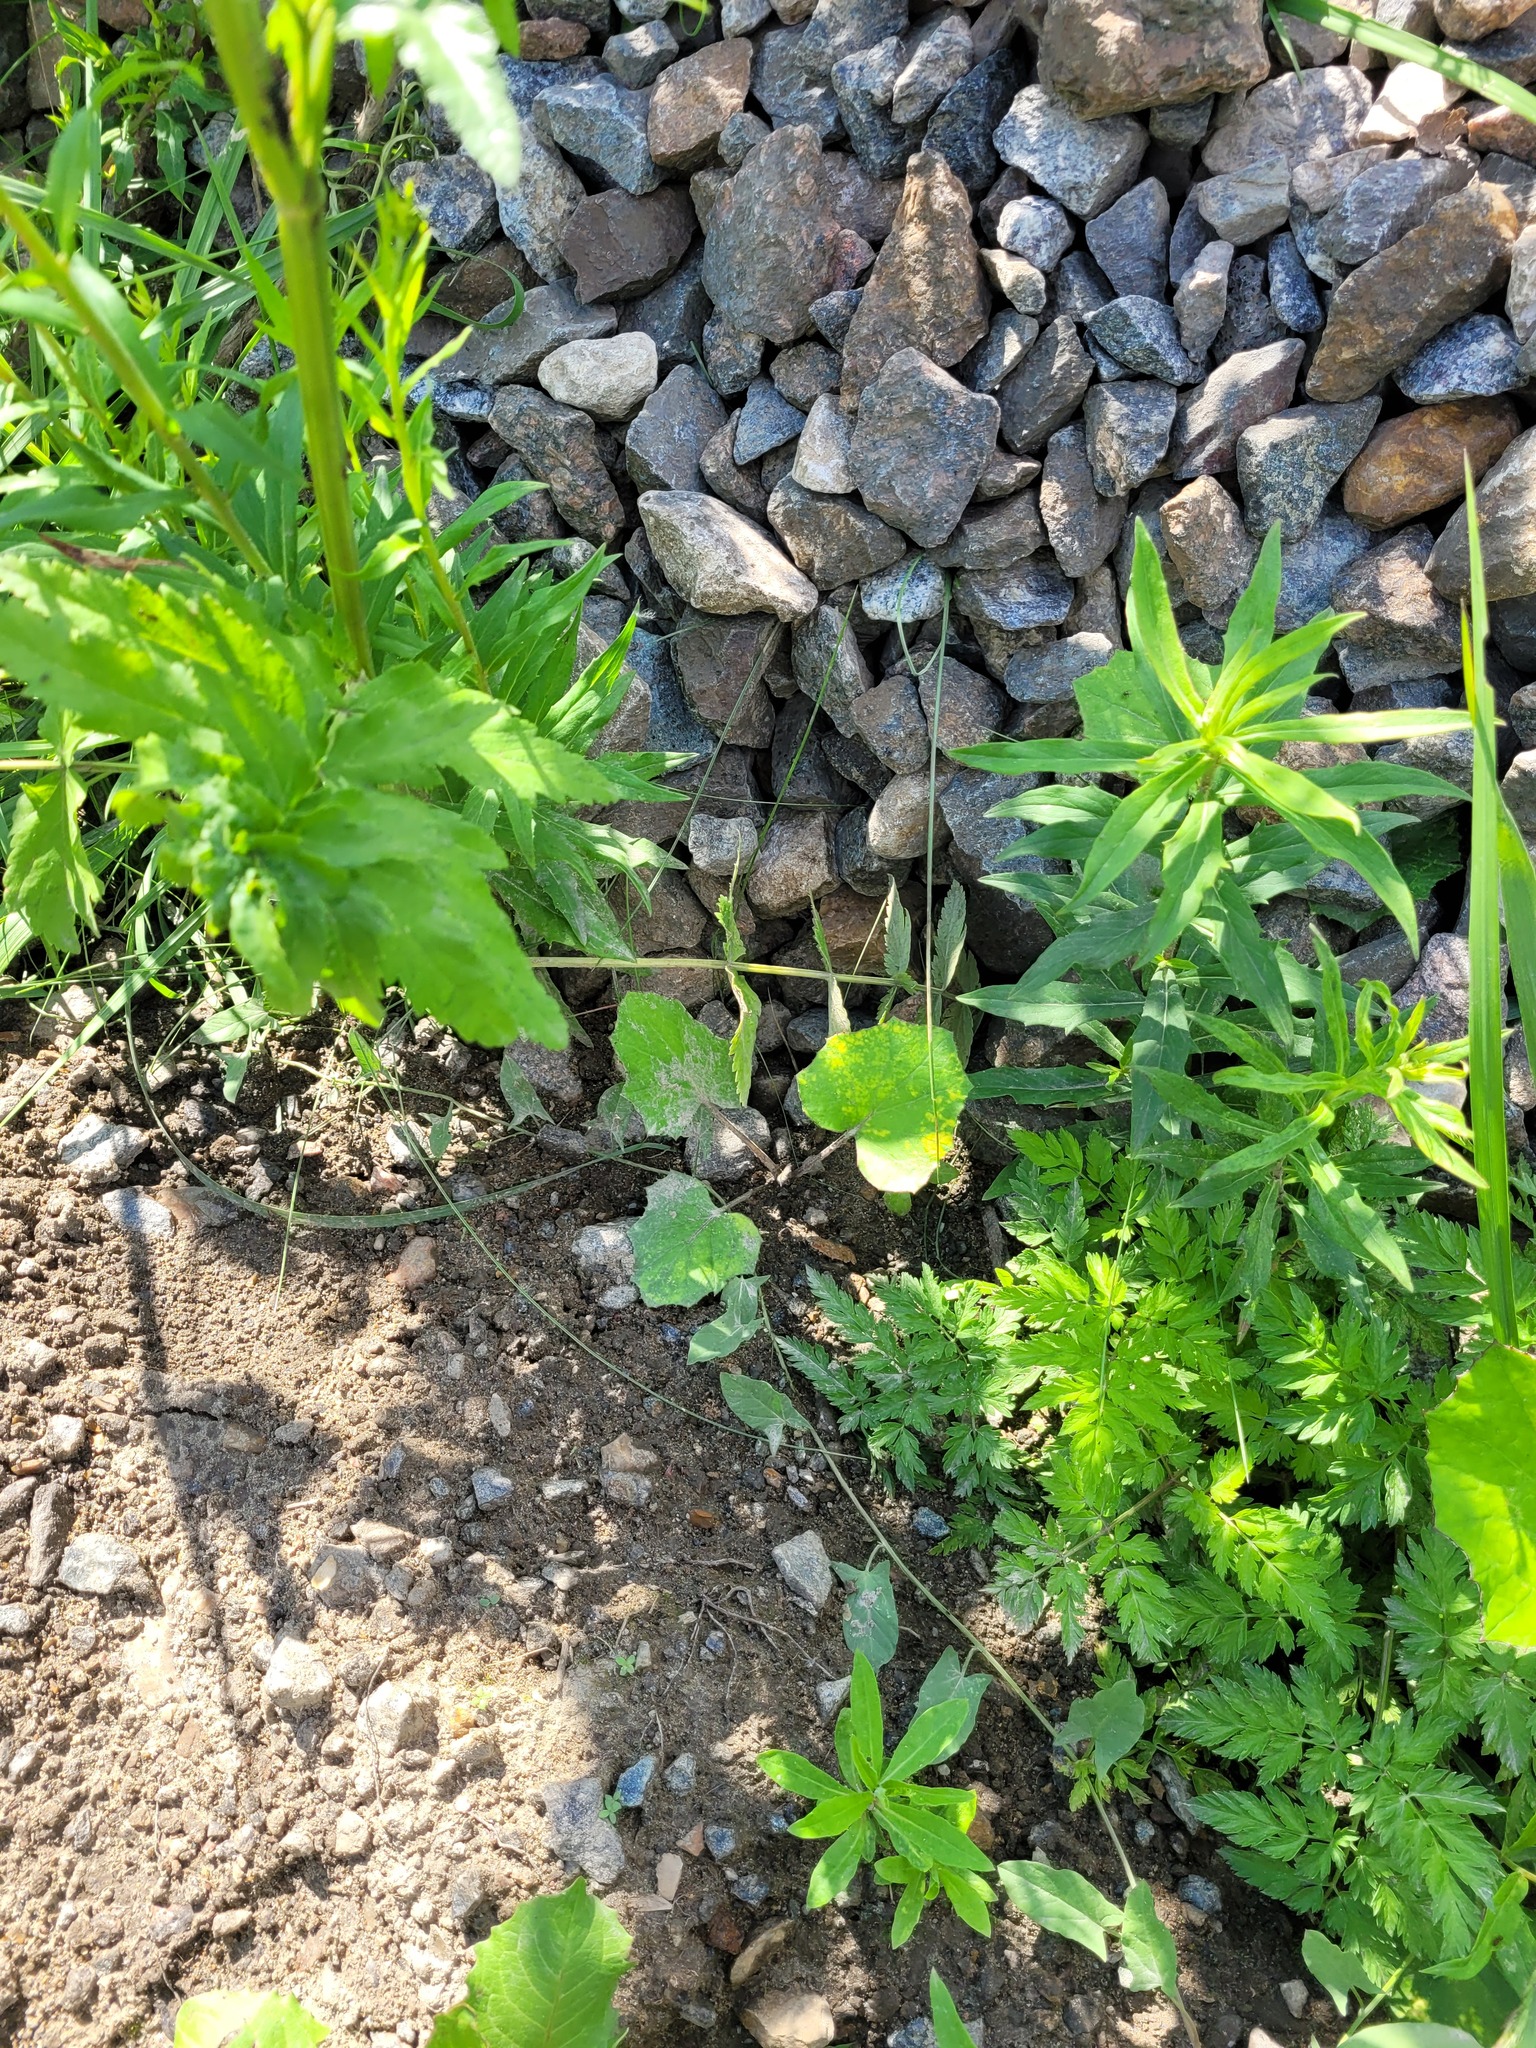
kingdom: Plantae
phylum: Tracheophyta
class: Magnoliopsida
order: Asterales
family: Asteraceae
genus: Tussilago
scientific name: Tussilago farfara
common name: Coltsfoot
